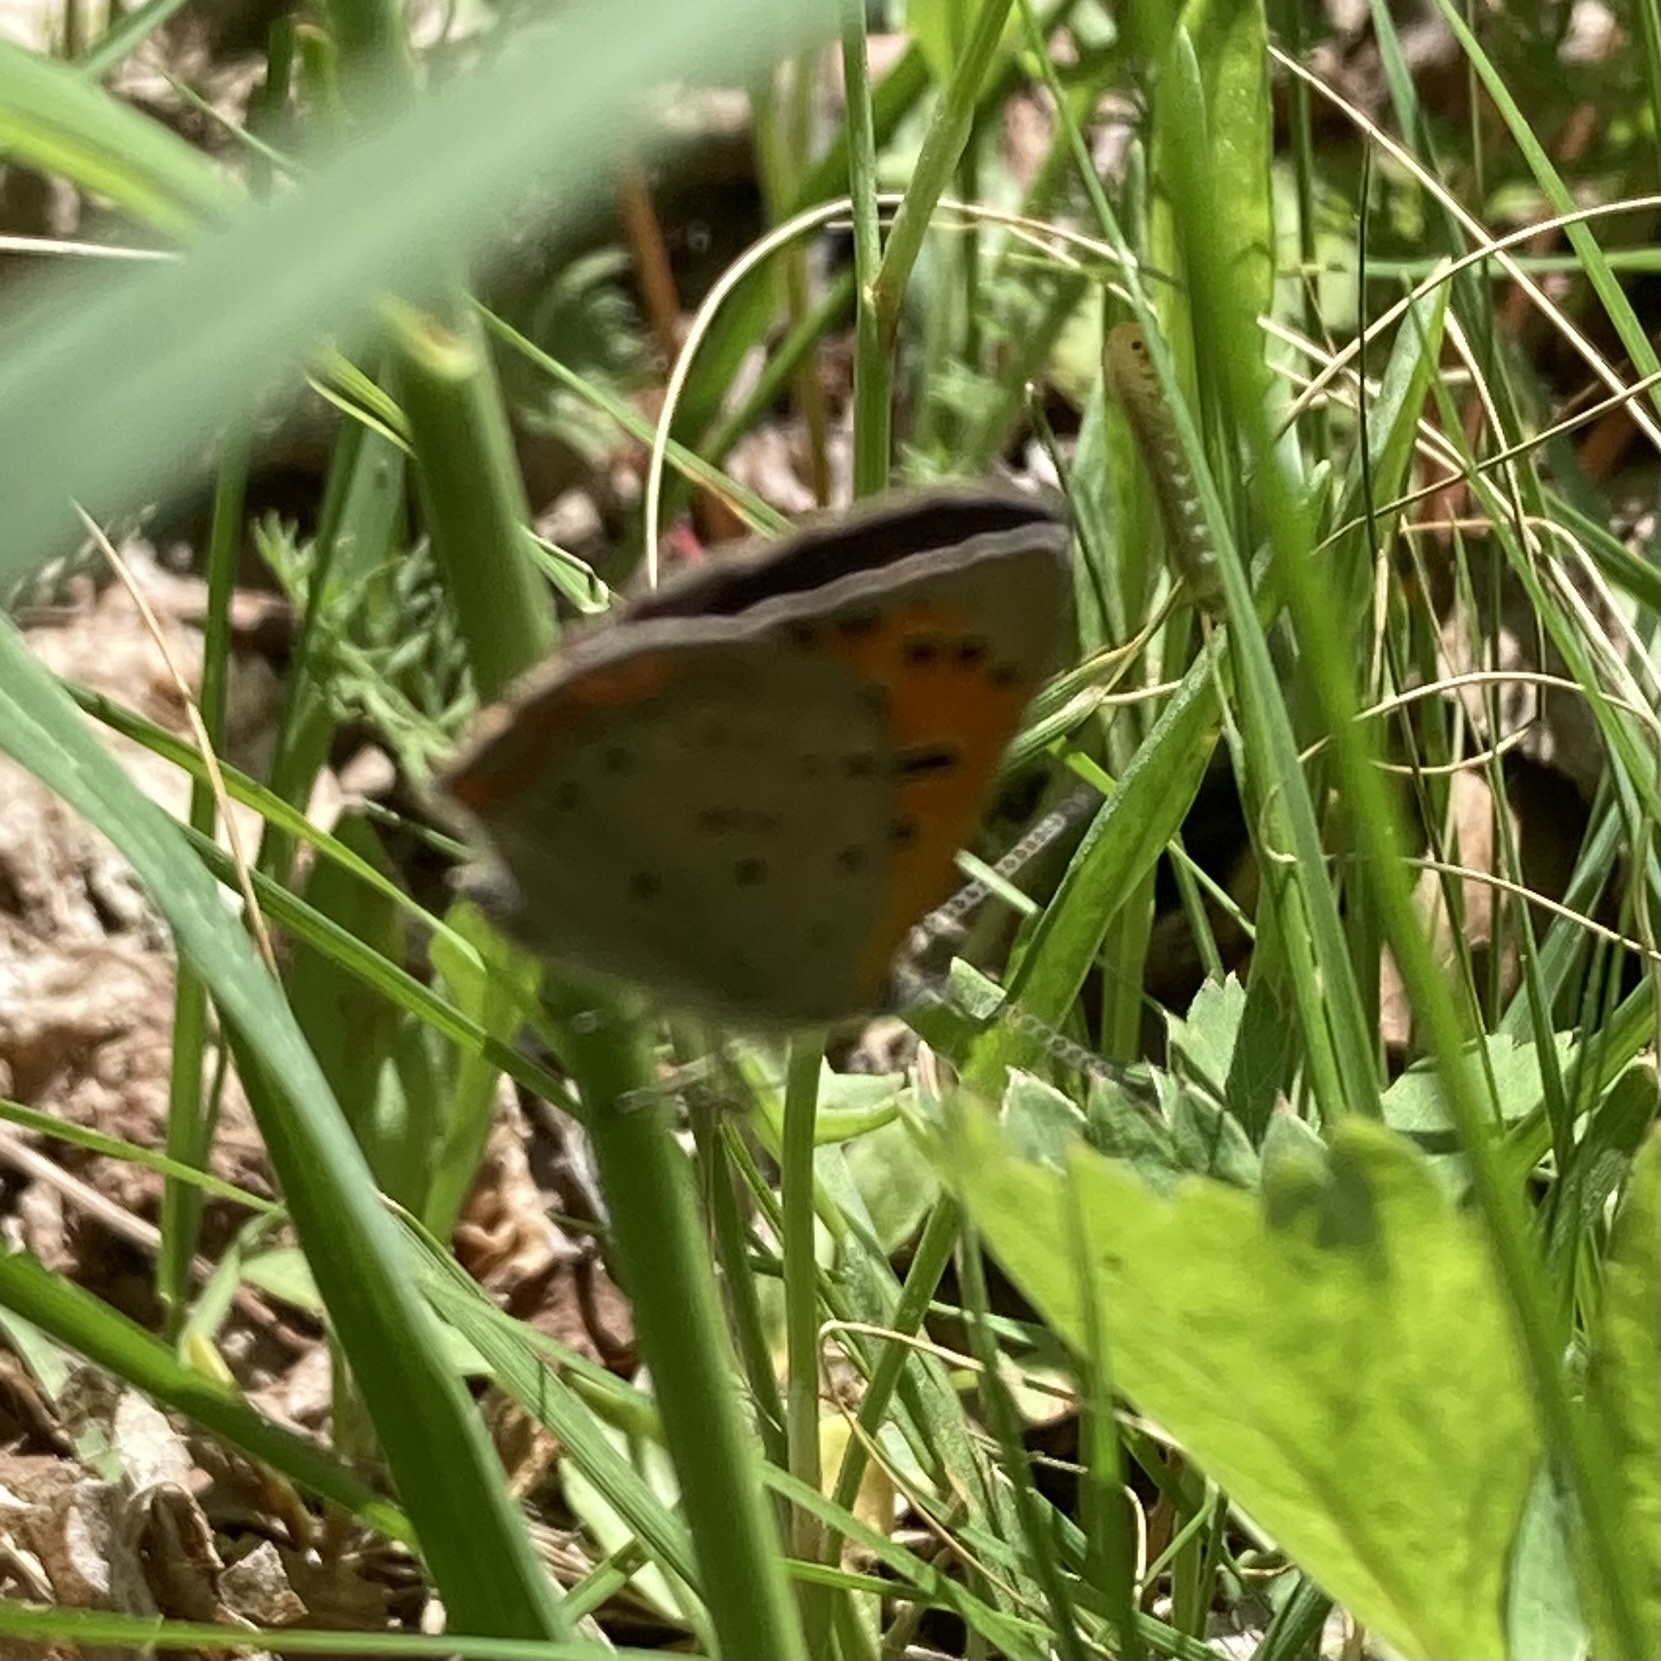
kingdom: Animalia
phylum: Arthropoda
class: Insecta
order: Lepidoptera
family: Lycaenidae
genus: Lycaena
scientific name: Lycaena hypophlaeas
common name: American copper
